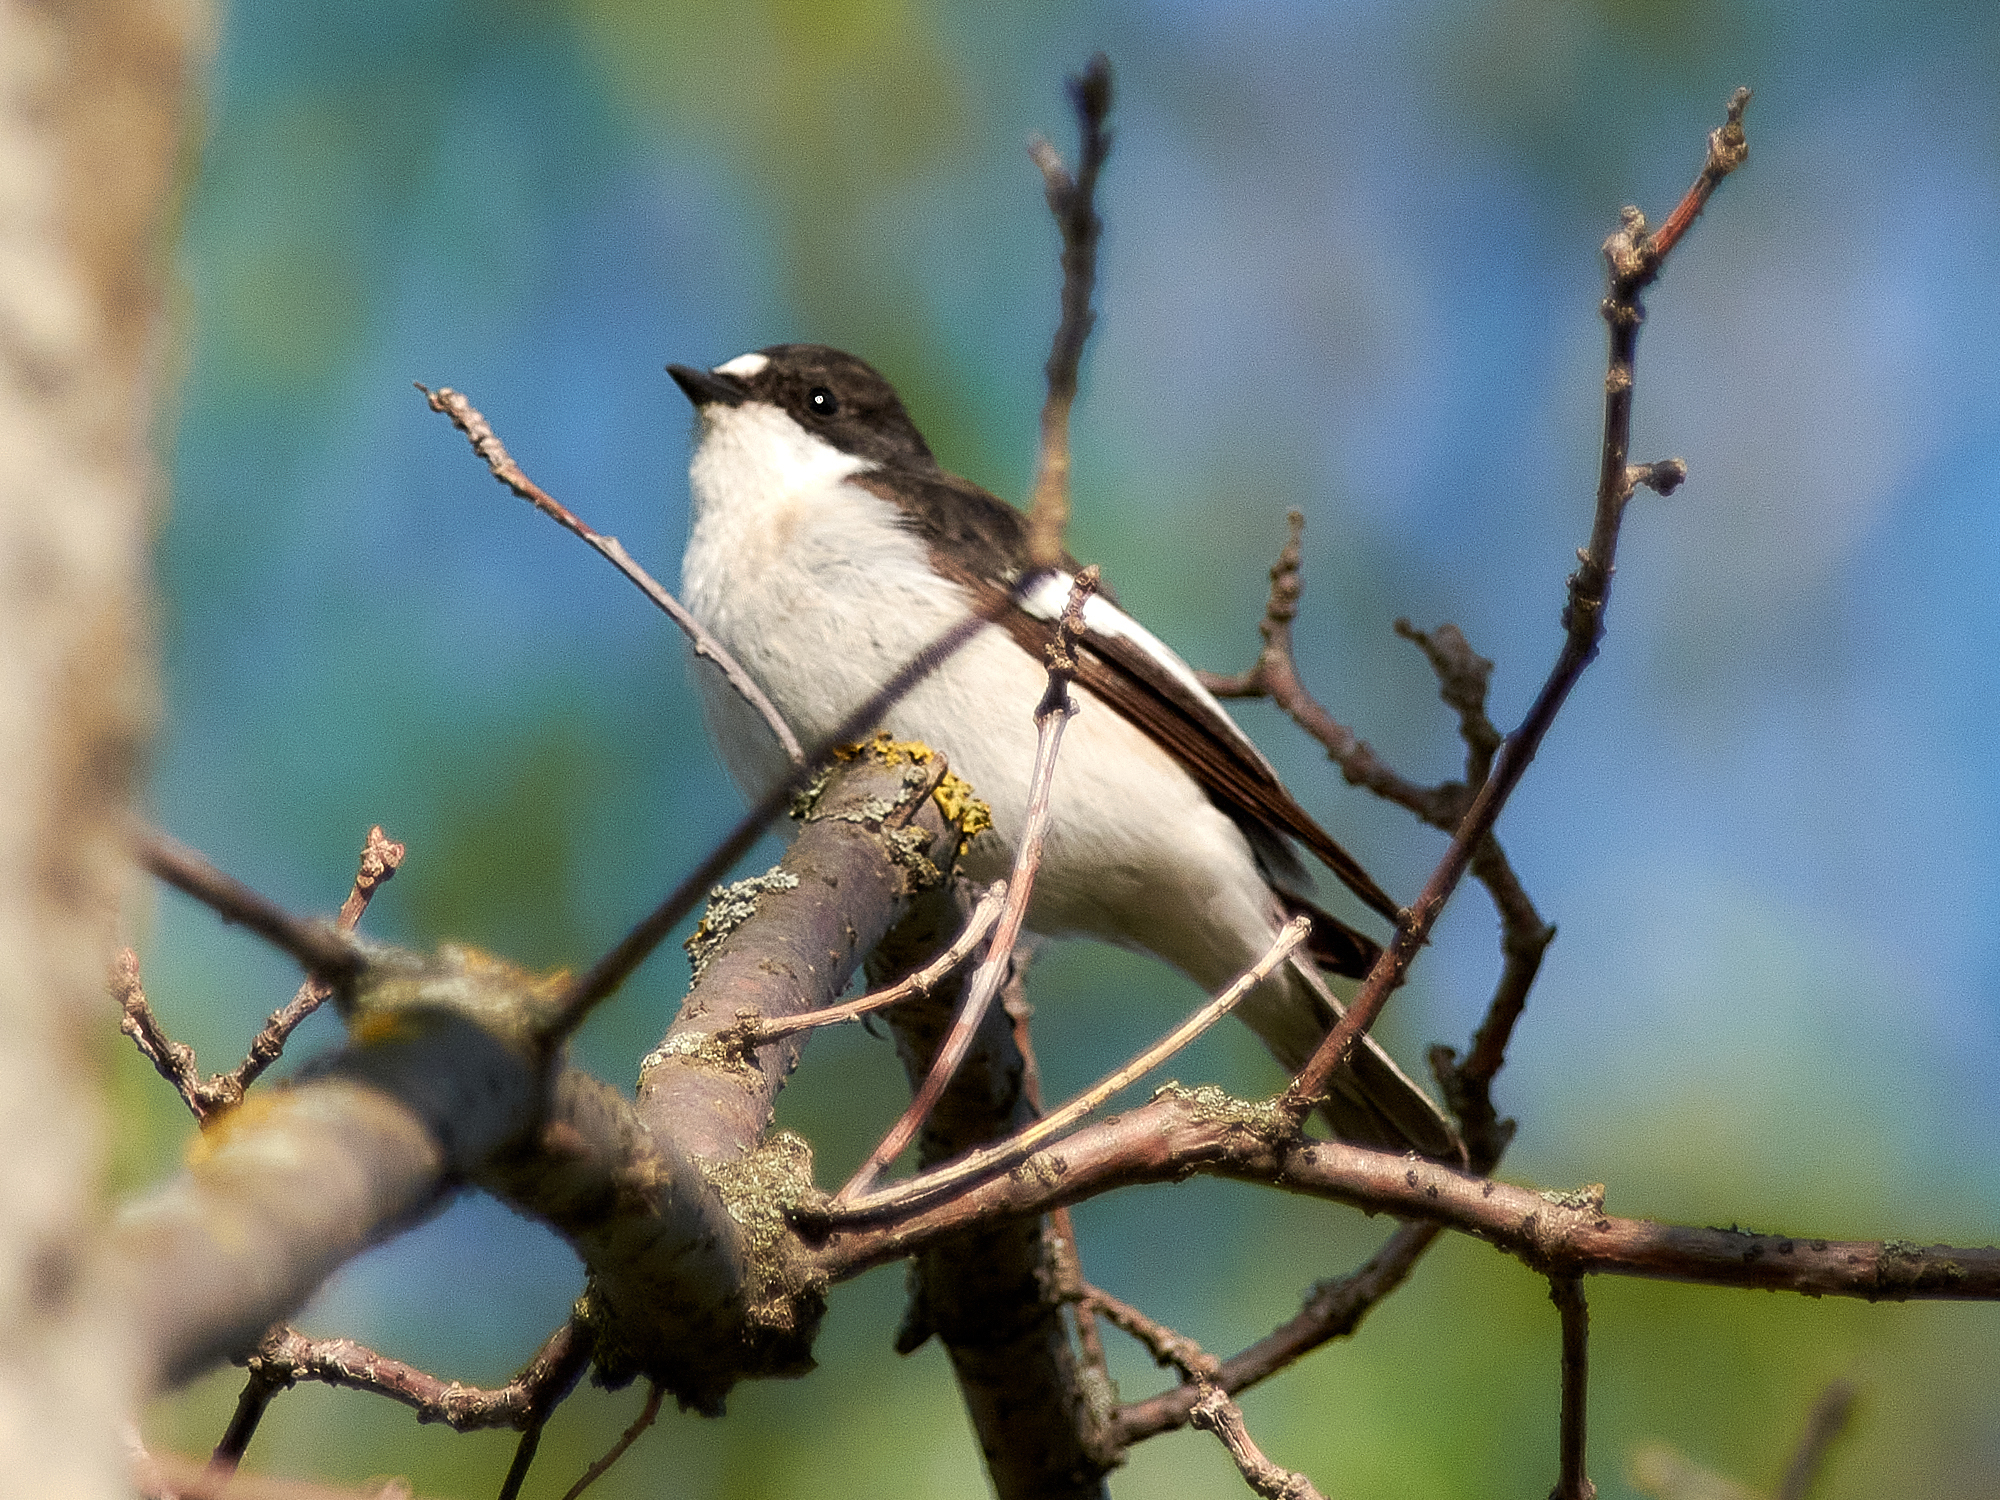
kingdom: Animalia
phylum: Chordata
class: Aves
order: Passeriformes
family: Muscicapidae
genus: Ficedula
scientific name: Ficedula hypoleuca
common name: European pied flycatcher
